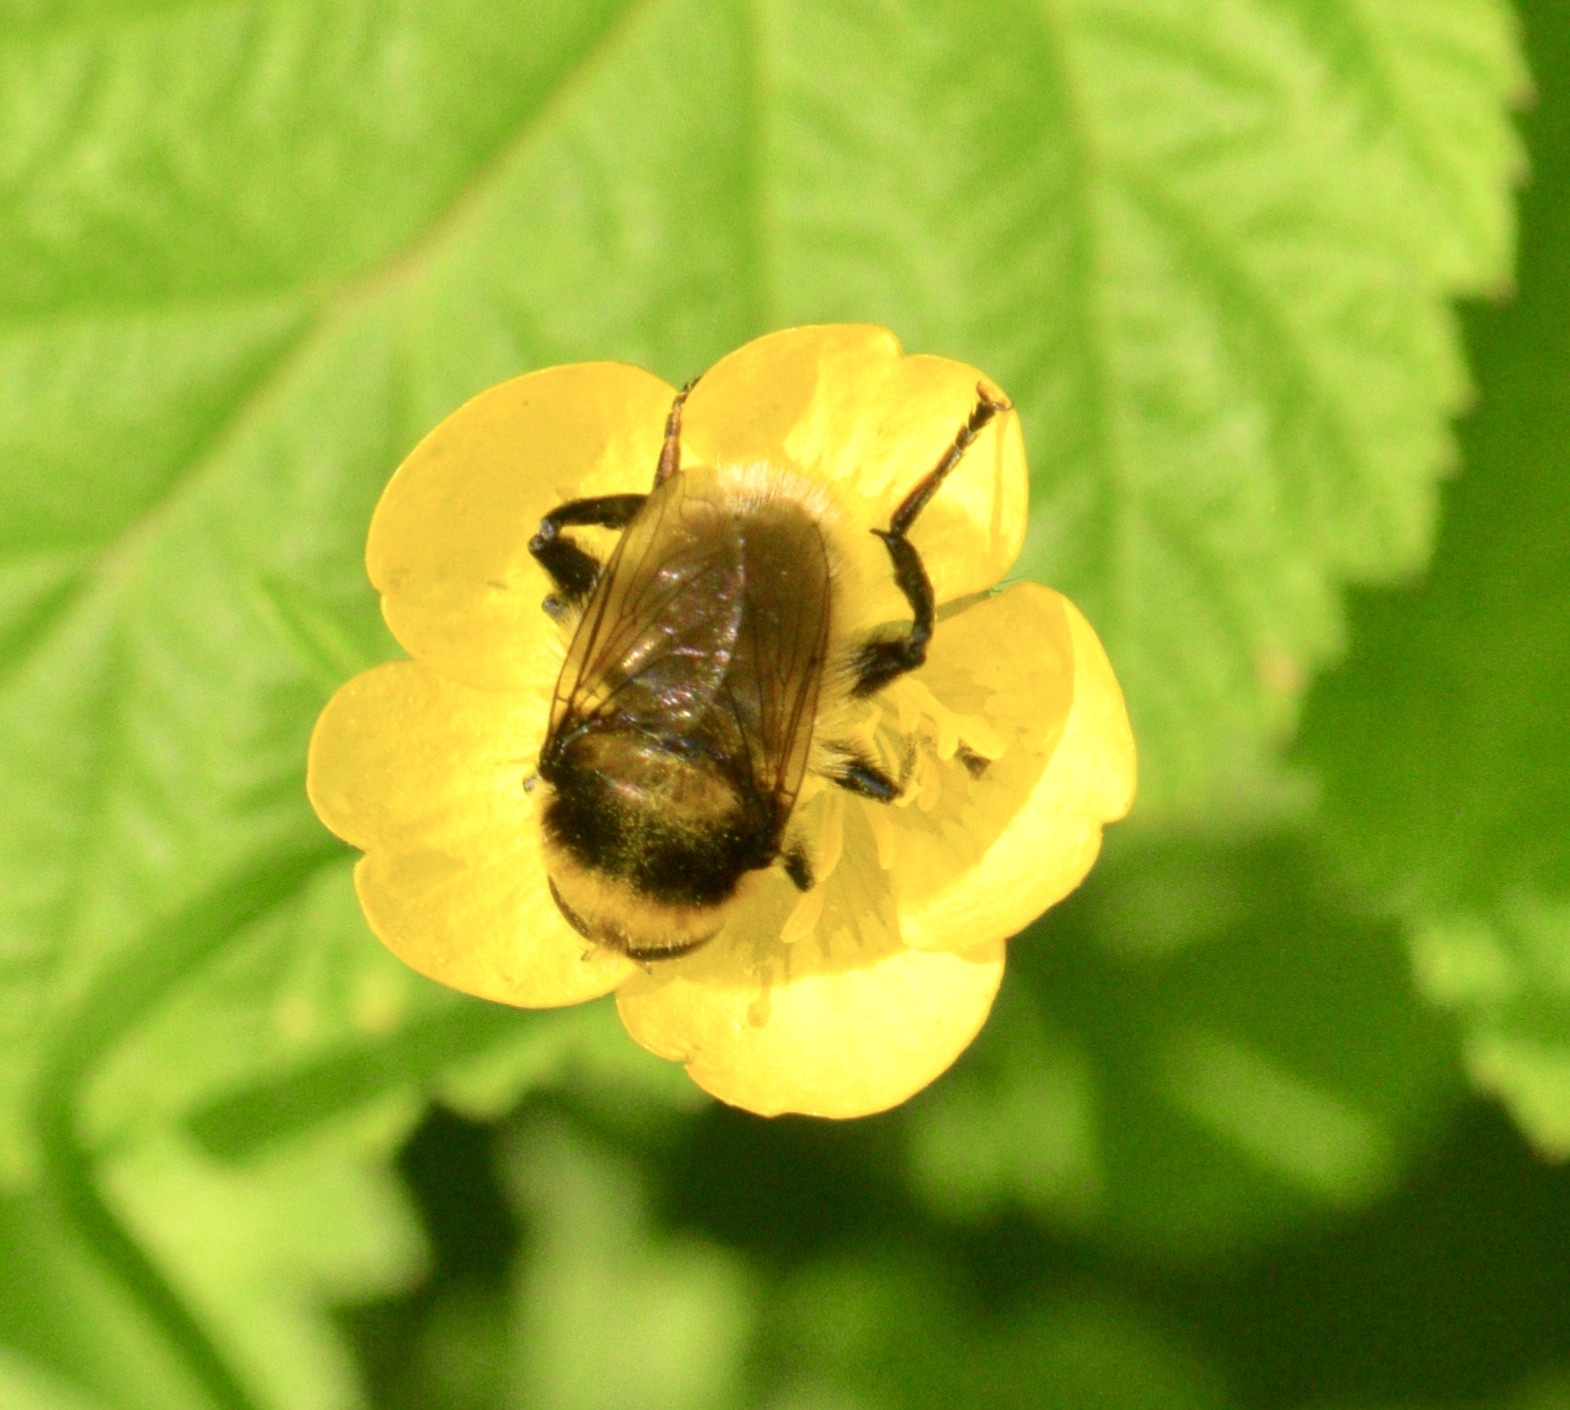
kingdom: Animalia
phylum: Arthropoda
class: Insecta
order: Diptera
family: Syrphidae
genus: Merodon
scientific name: Merodon equestris
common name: Greater bulb-fly
